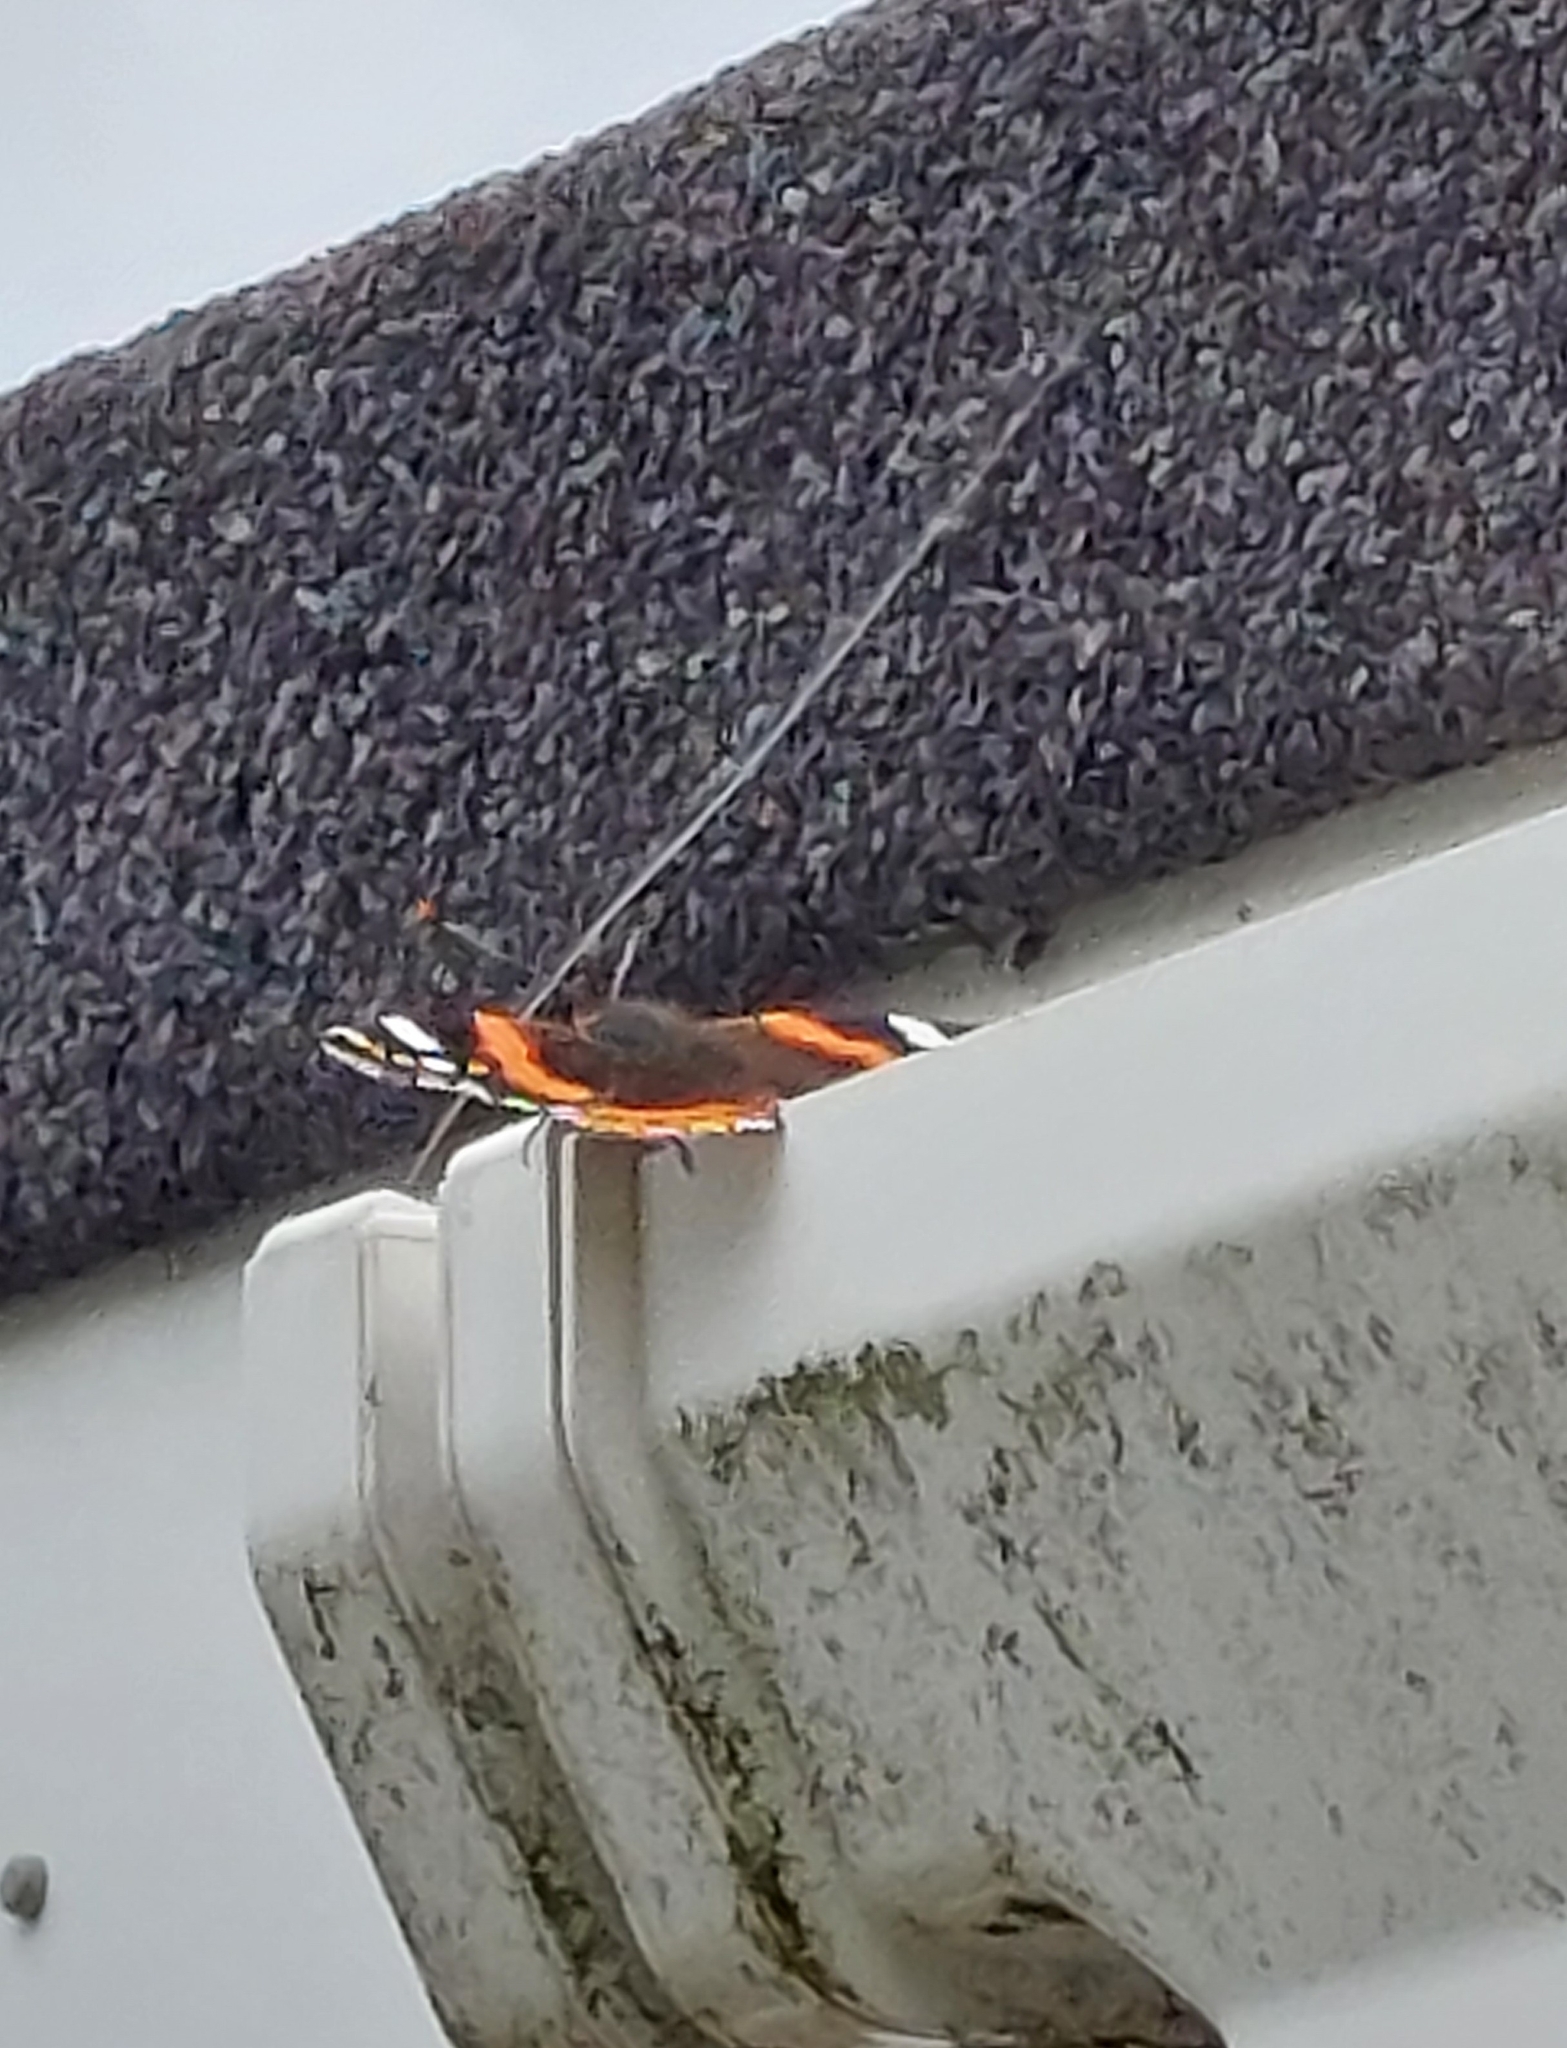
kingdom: Animalia
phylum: Arthropoda
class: Insecta
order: Lepidoptera
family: Nymphalidae
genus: Vanessa
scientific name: Vanessa atalanta
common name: Red admiral
